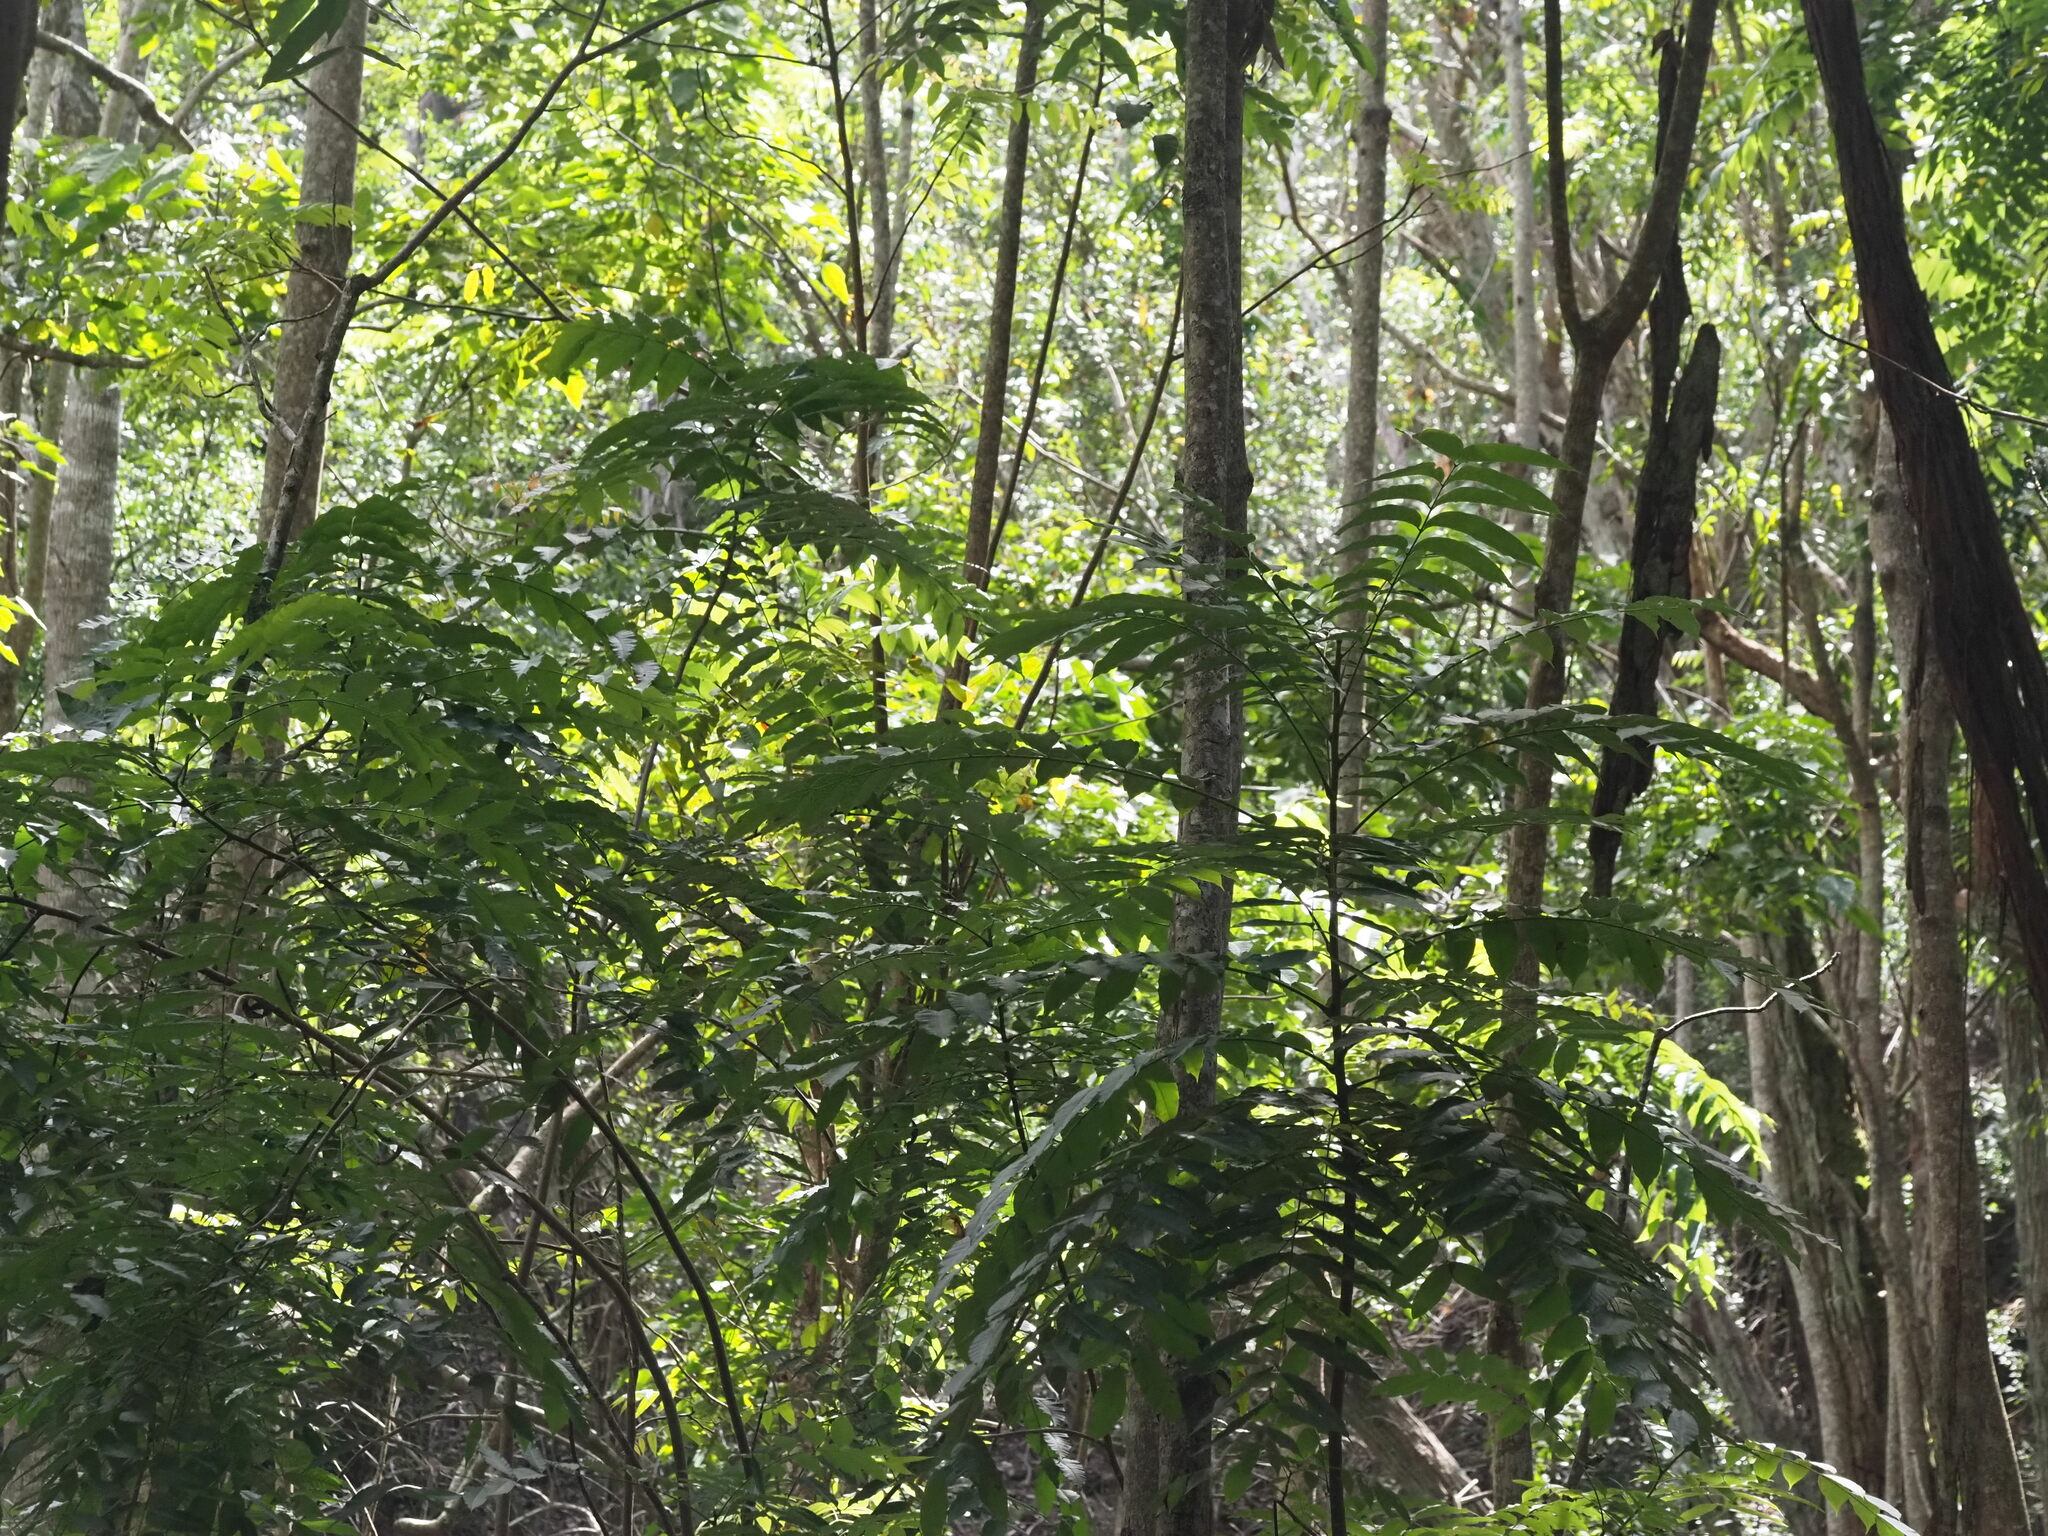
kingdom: Plantae
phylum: Tracheophyta
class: Magnoliopsida
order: Sapindales
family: Meliaceae
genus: Toona
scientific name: Toona ciliata
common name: Australian redcedar
